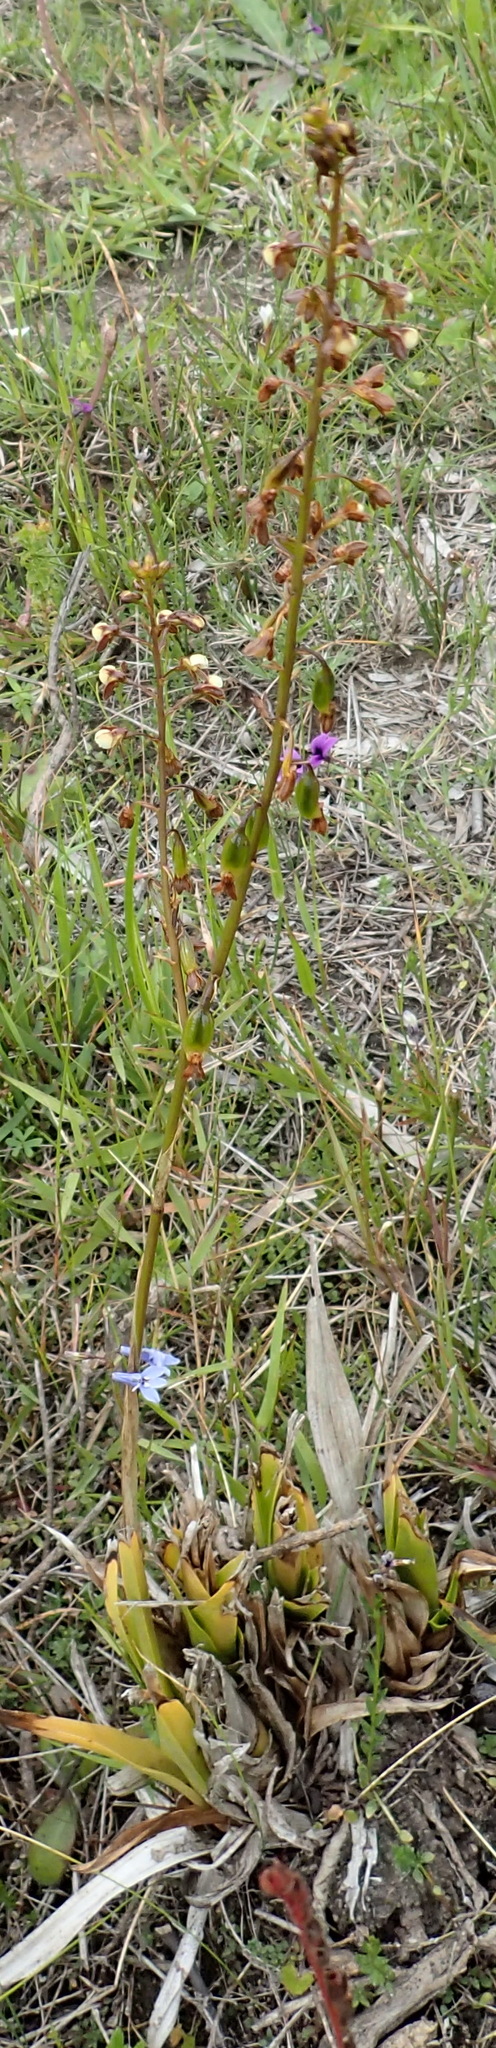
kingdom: Plantae
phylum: Tracheophyta
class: Liliopsida
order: Asparagales
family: Orchidaceae
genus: Eulophia
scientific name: Eulophia cochlearis
